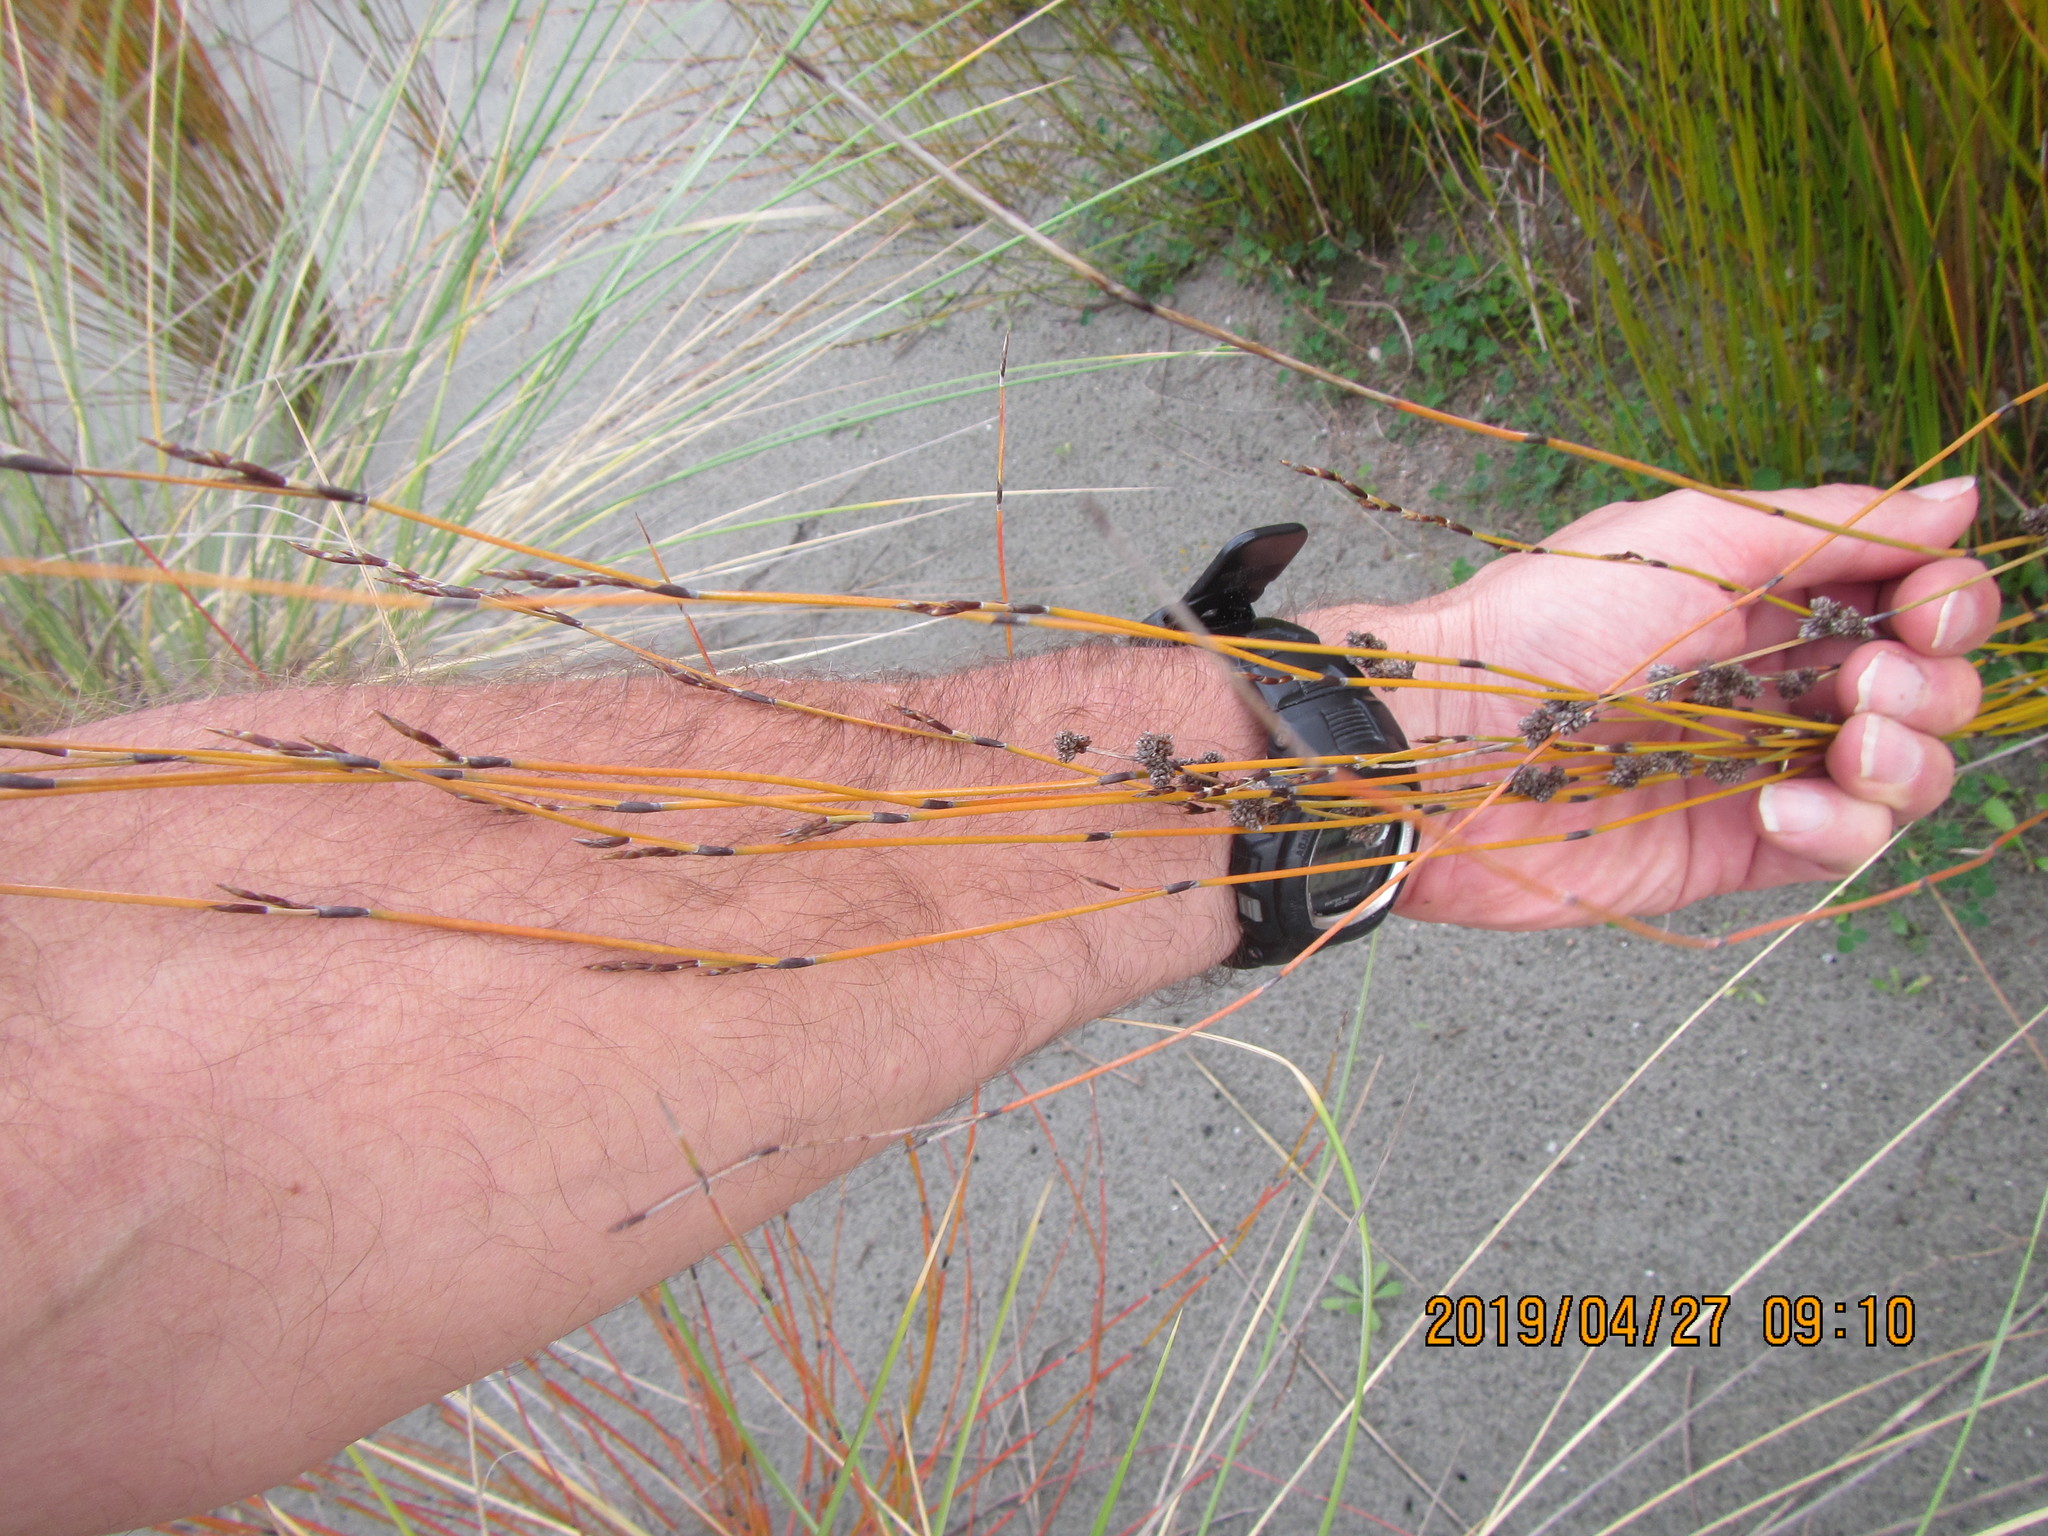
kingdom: Plantae
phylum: Tracheophyta
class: Liliopsida
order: Poales
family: Restionaceae
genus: Apodasmia
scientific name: Apodasmia similis
